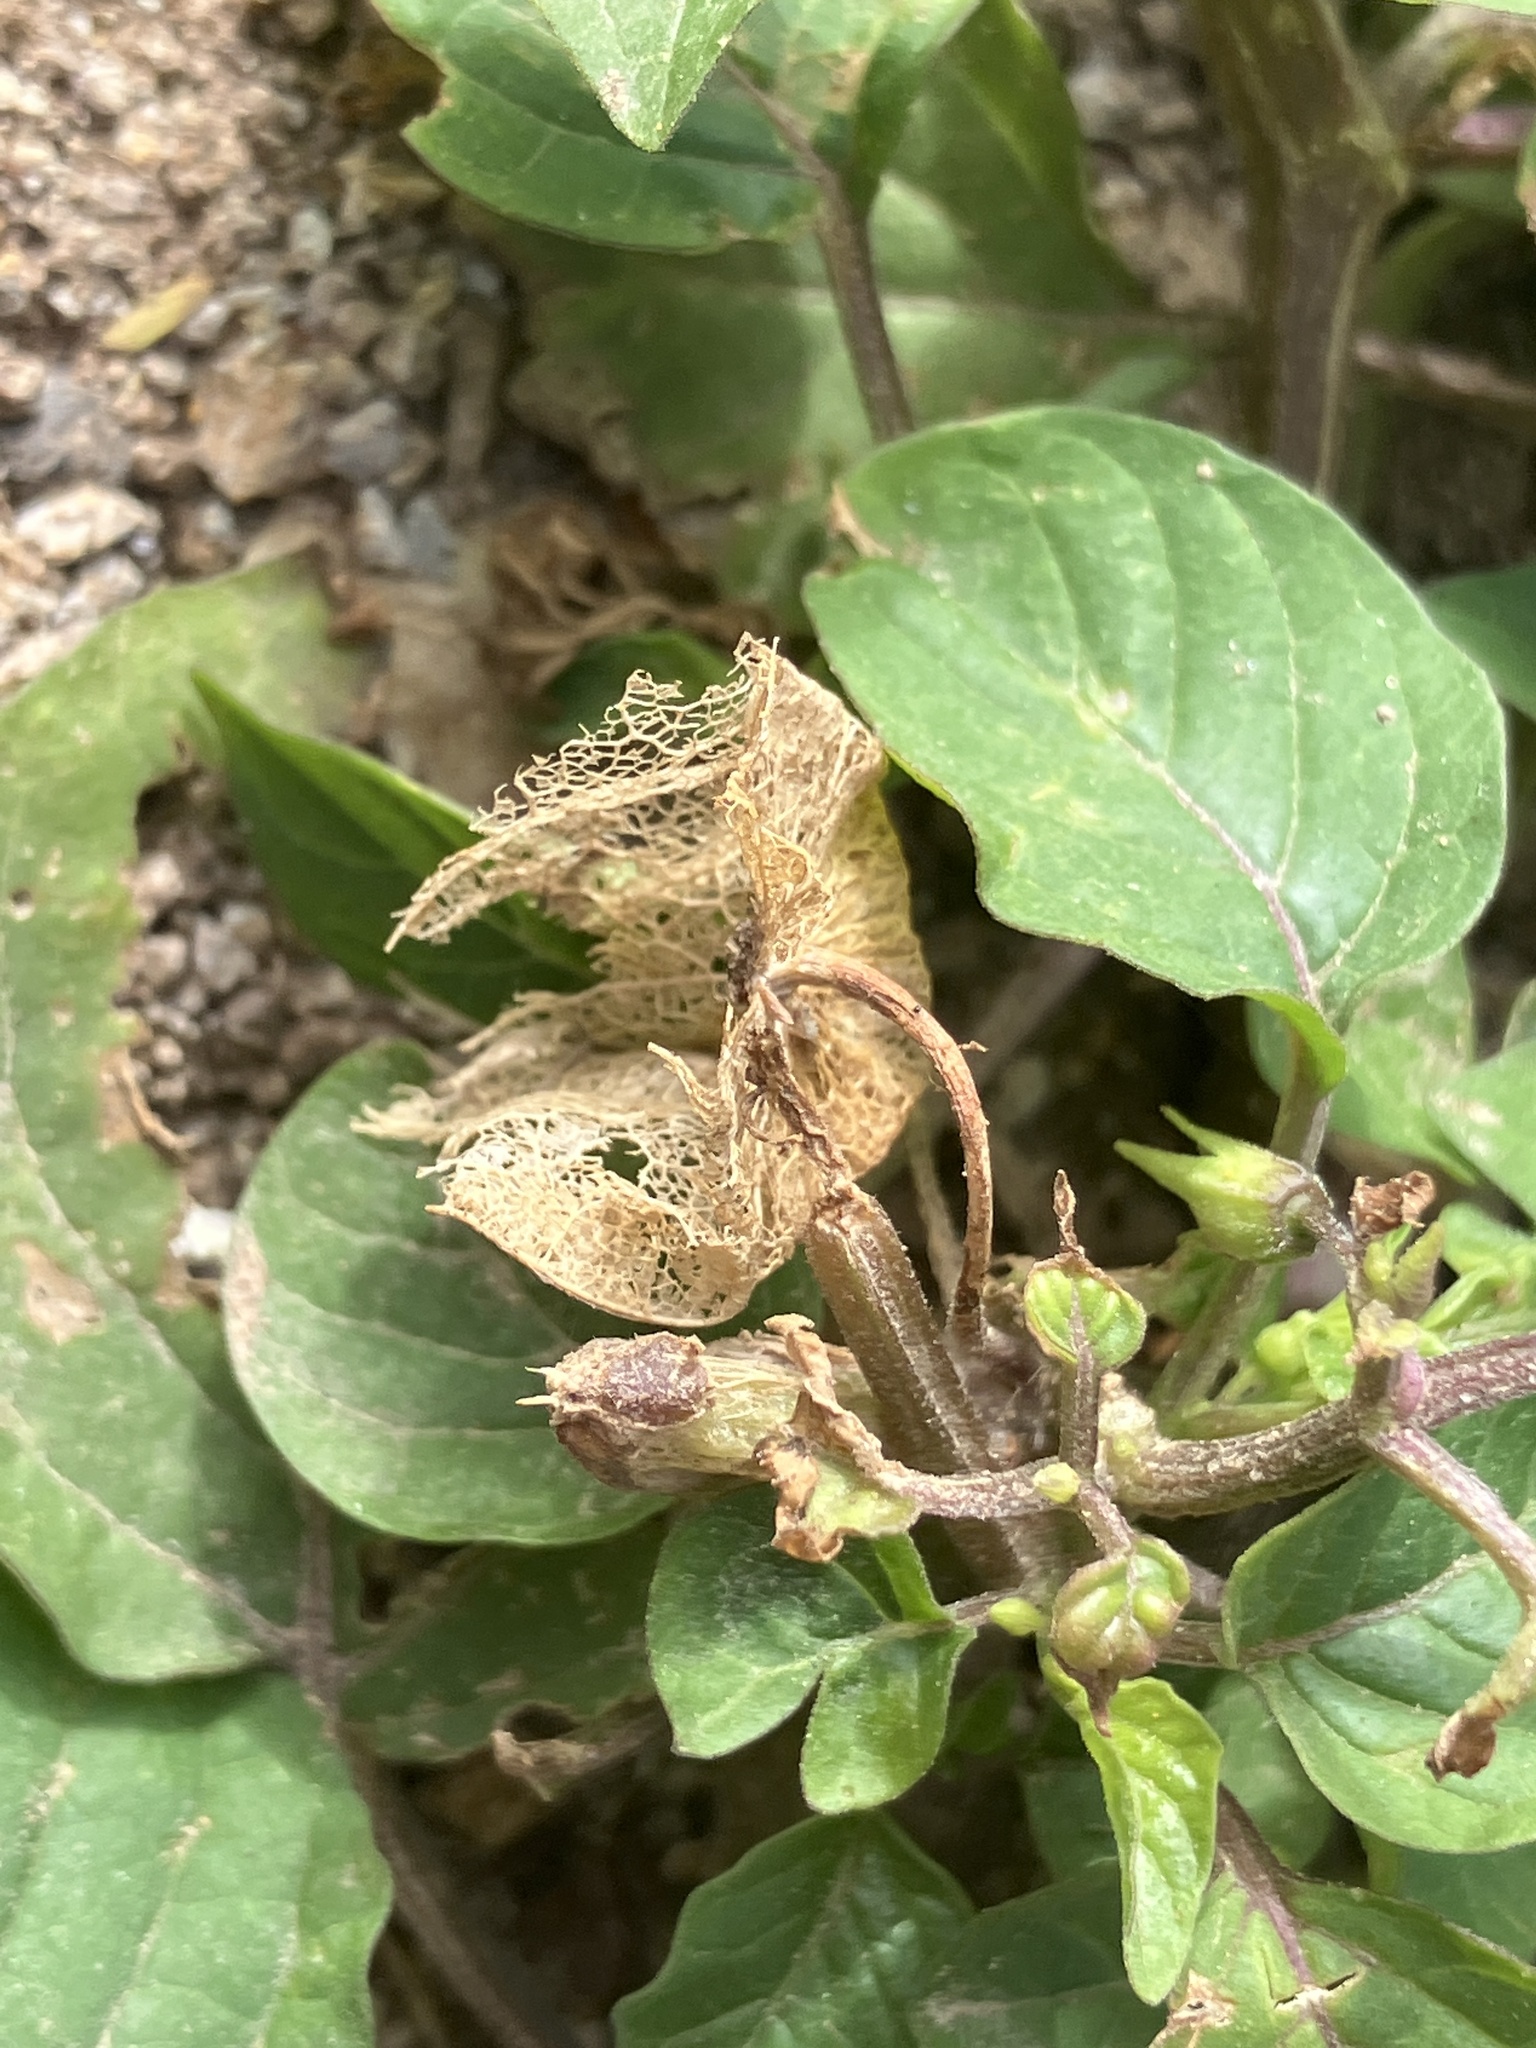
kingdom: Plantae
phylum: Tracheophyta
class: Magnoliopsida
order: Solanales
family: Solanaceae
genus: Physalis
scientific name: Physalis cordata
